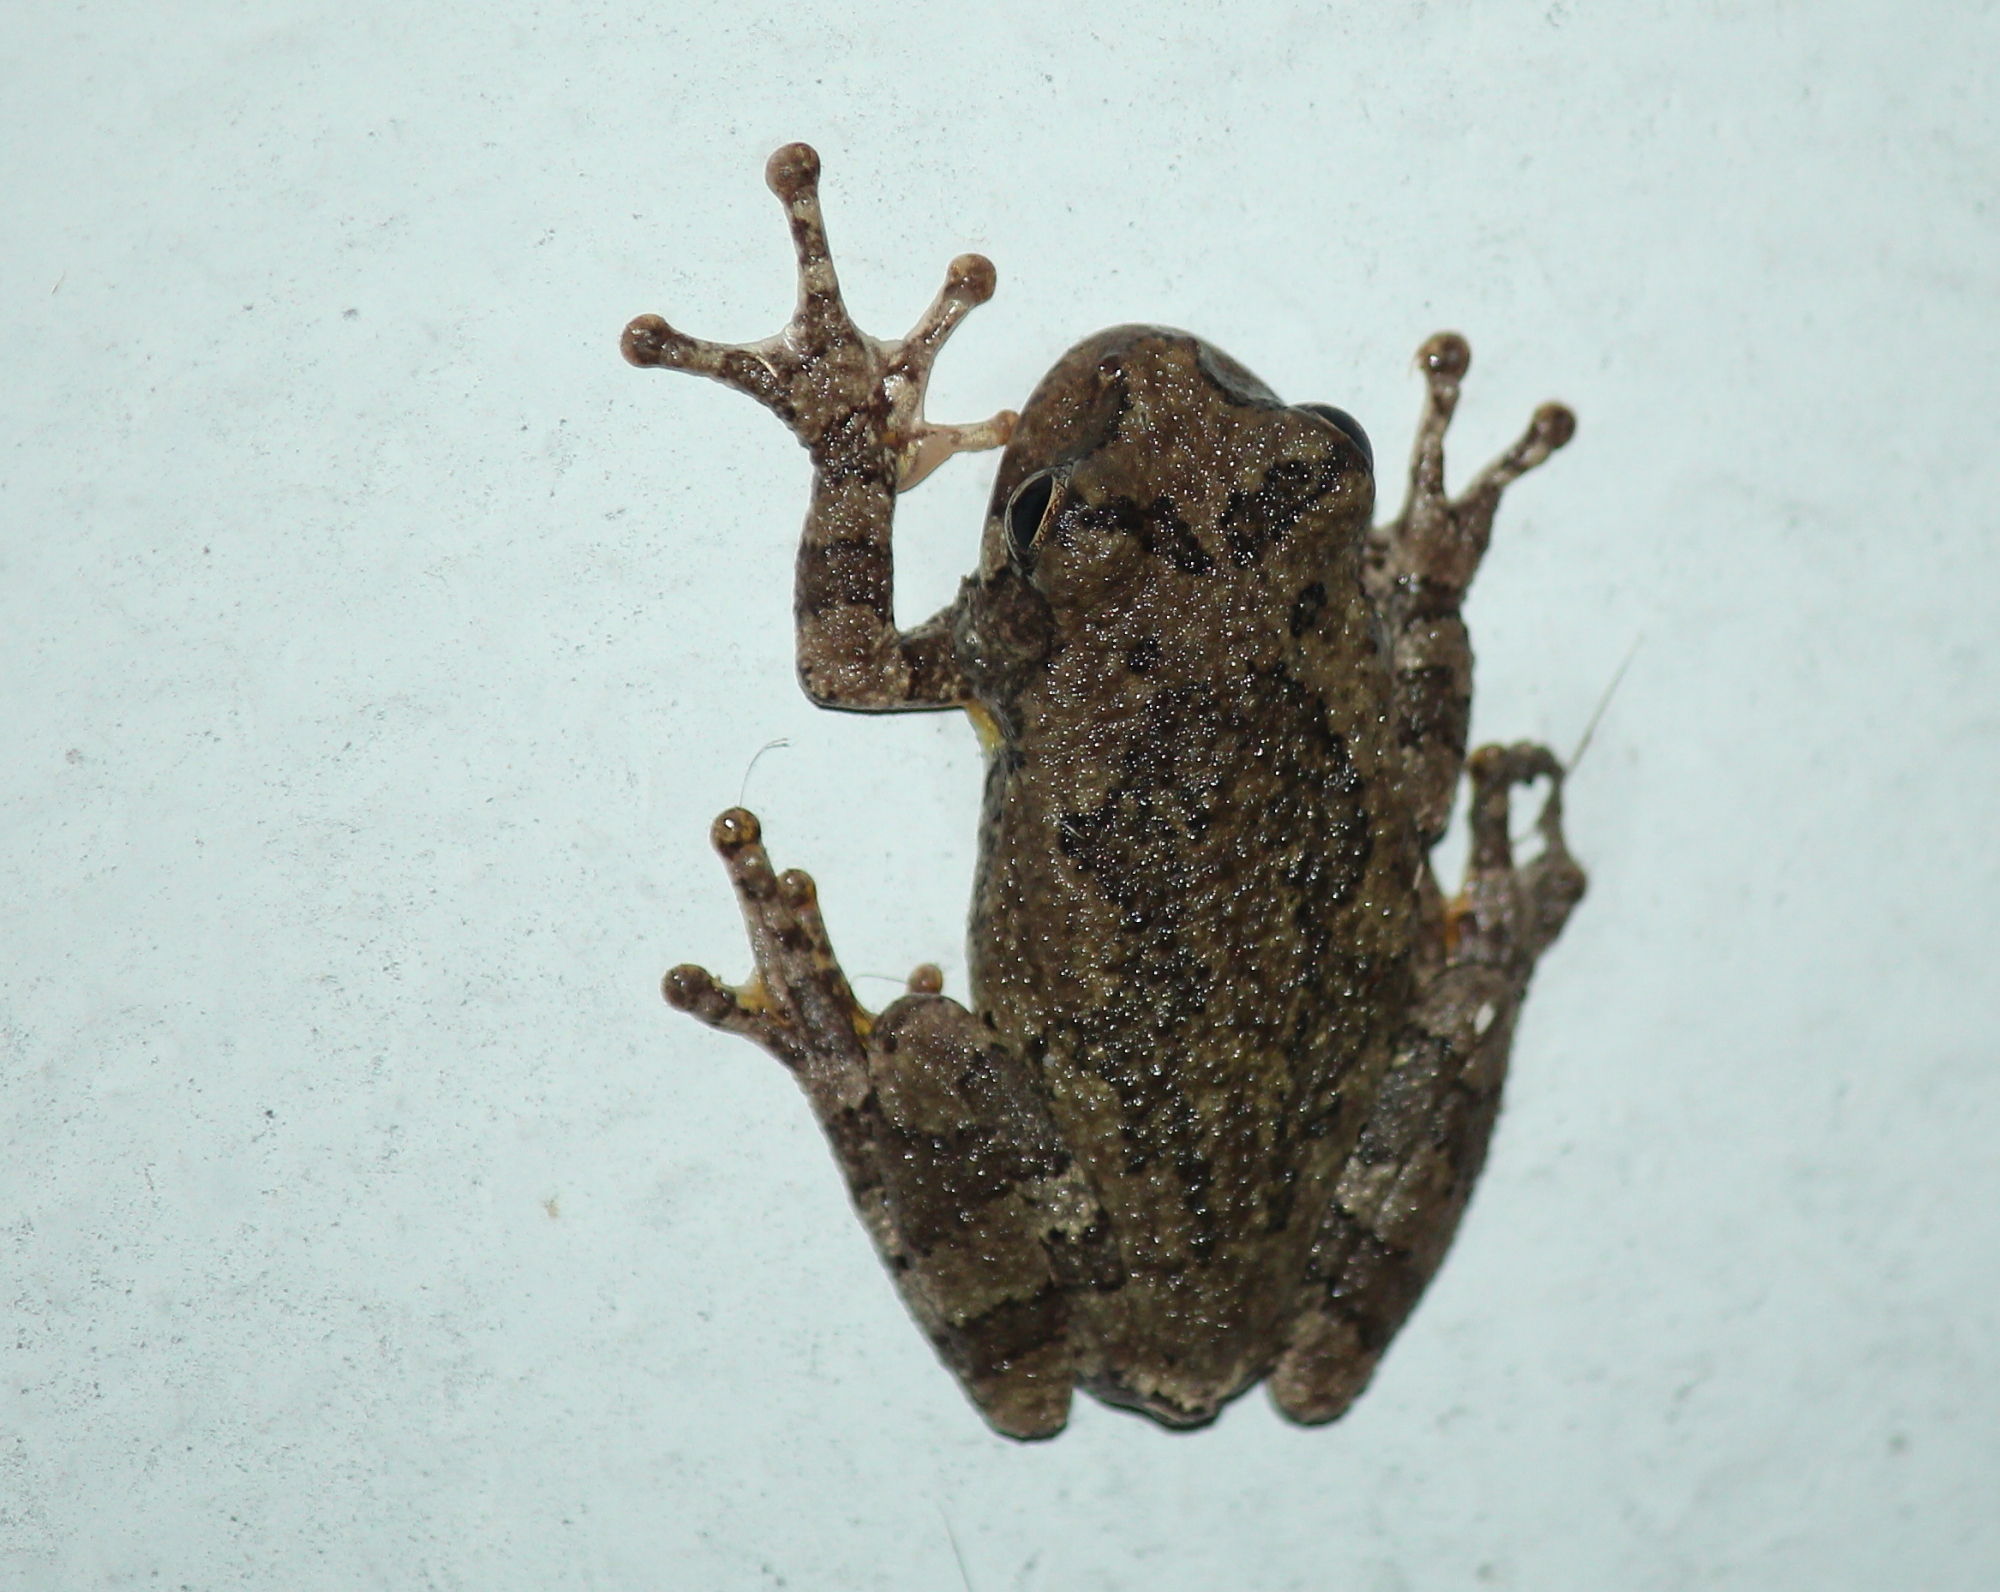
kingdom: Animalia
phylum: Chordata
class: Amphibia
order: Anura
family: Hylidae
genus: Hyla
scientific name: Hyla
